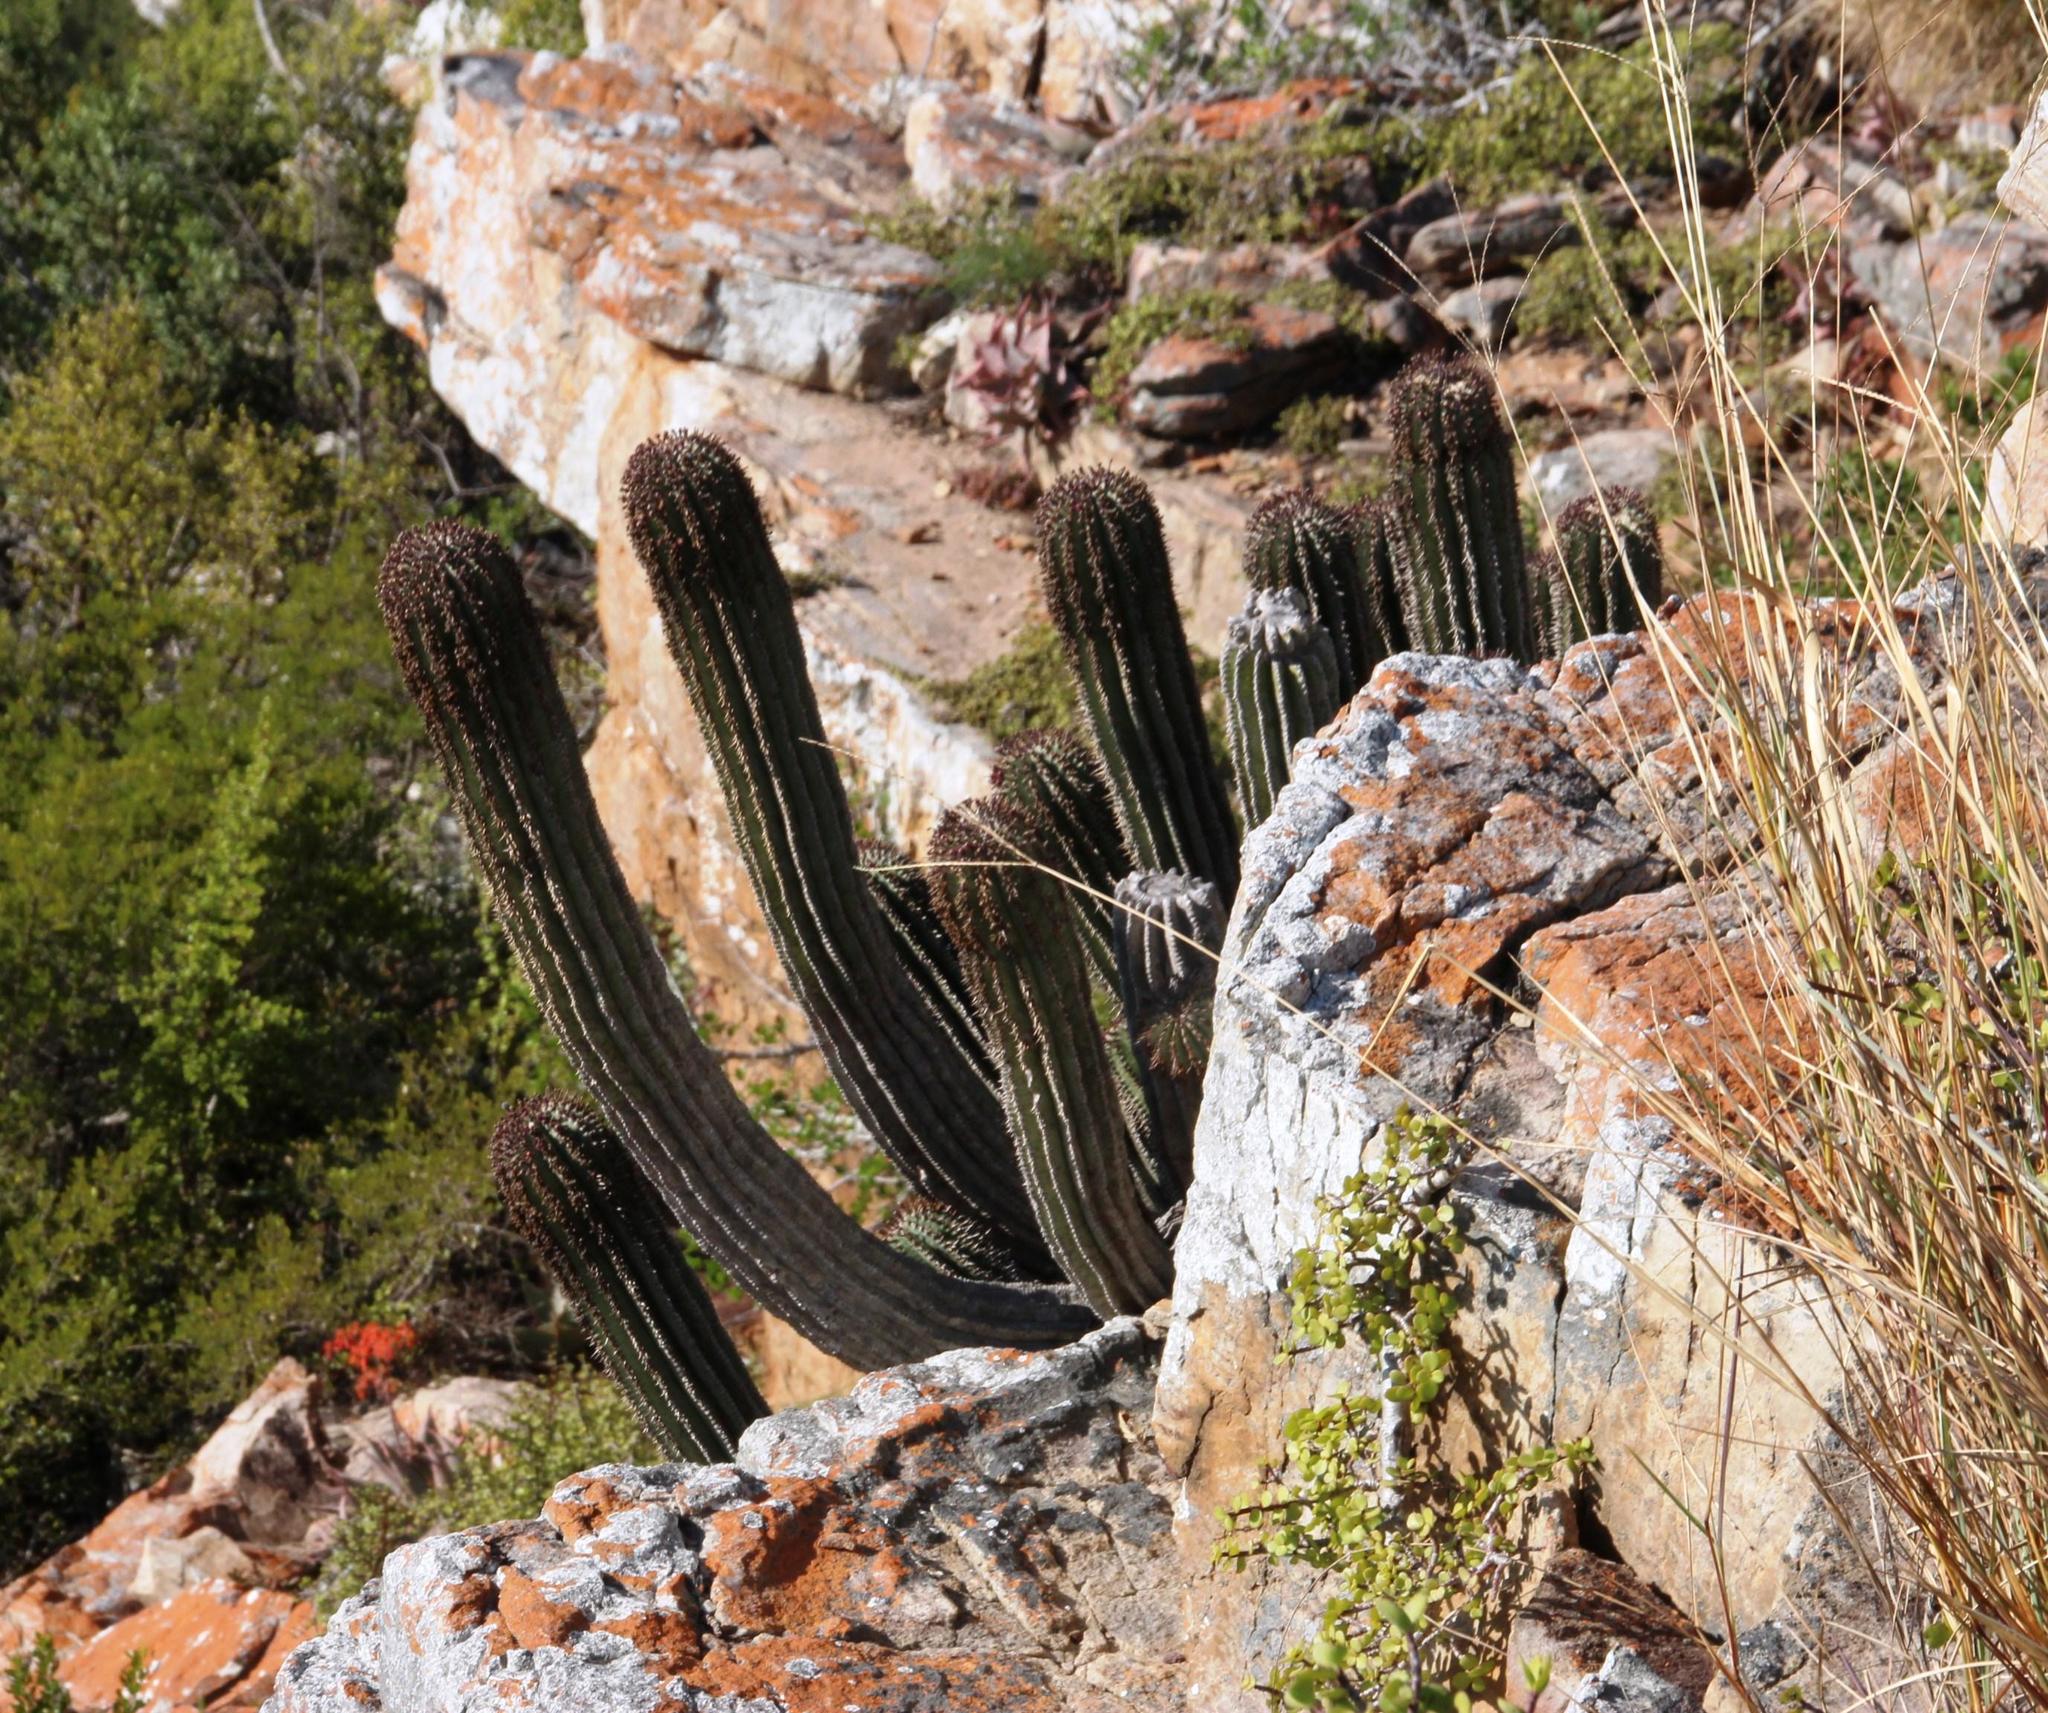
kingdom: Plantae
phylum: Tracheophyta
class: Magnoliopsida
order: Malpighiales
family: Euphorbiaceae
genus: Euphorbia
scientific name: Euphorbia polygona
